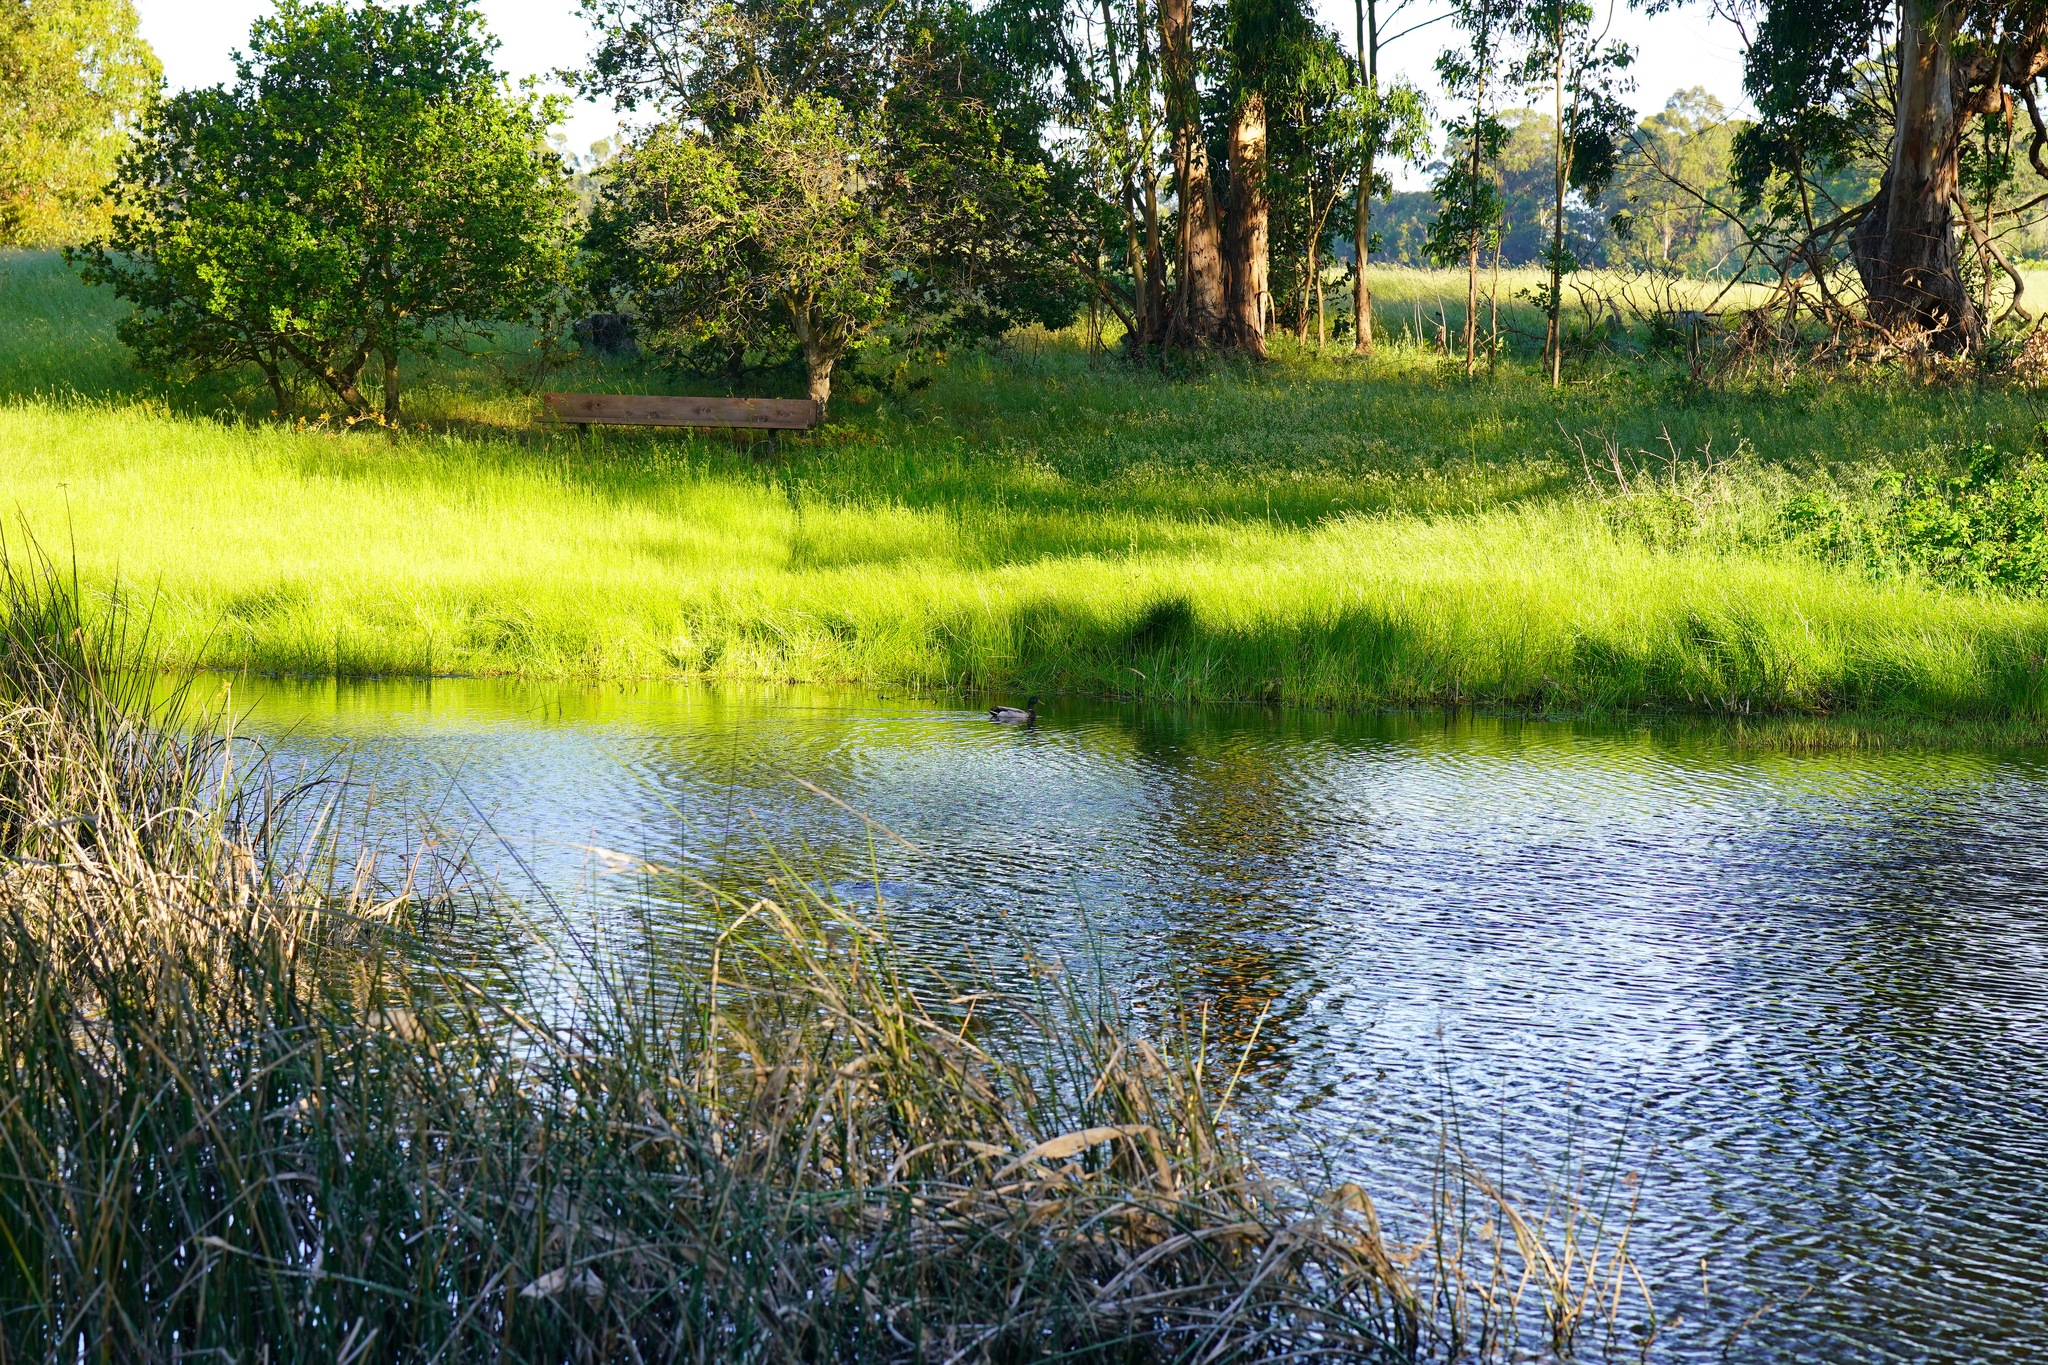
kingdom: Animalia
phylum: Chordata
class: Aves
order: Anseriformes
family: Anatidae
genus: Anas
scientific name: Anas platyrhynchos
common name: Mallard
